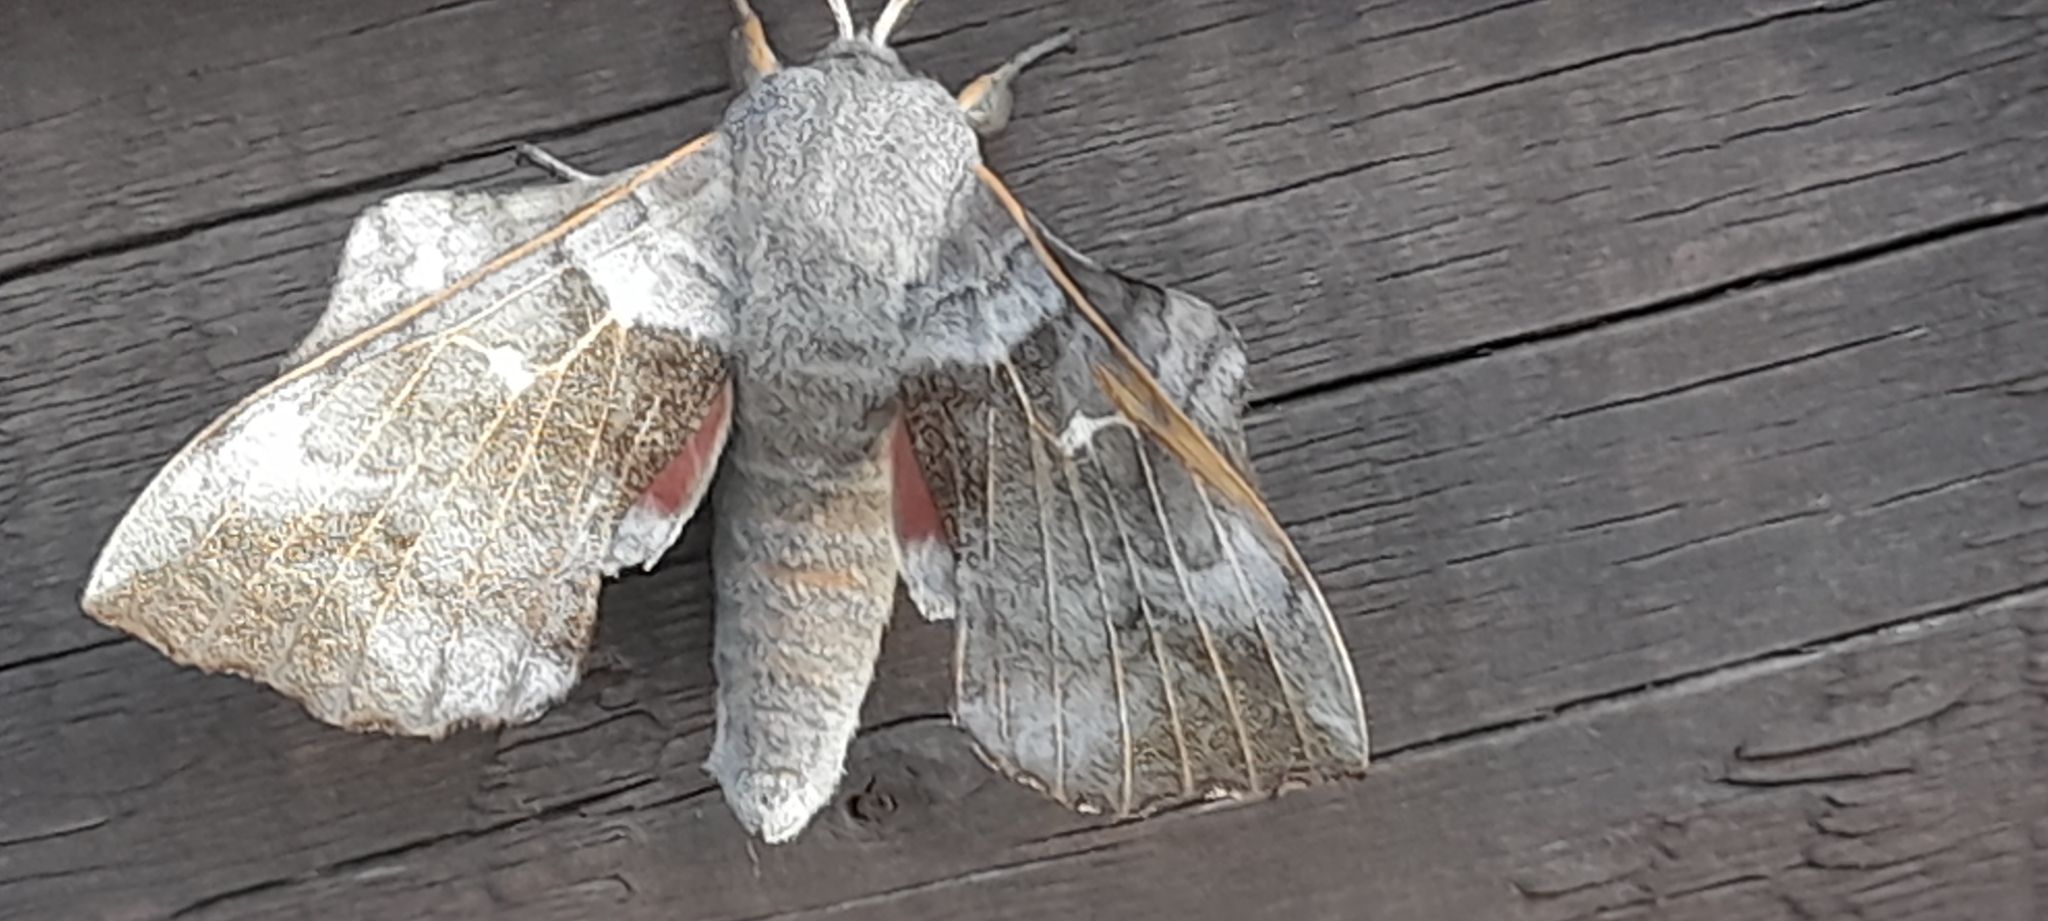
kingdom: Animalia
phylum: Arthropoda
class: Insecta
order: Lepidoptera
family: Sphingidae
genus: Laothoe
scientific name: Laothoe populi
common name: Poplar hawk-moth
